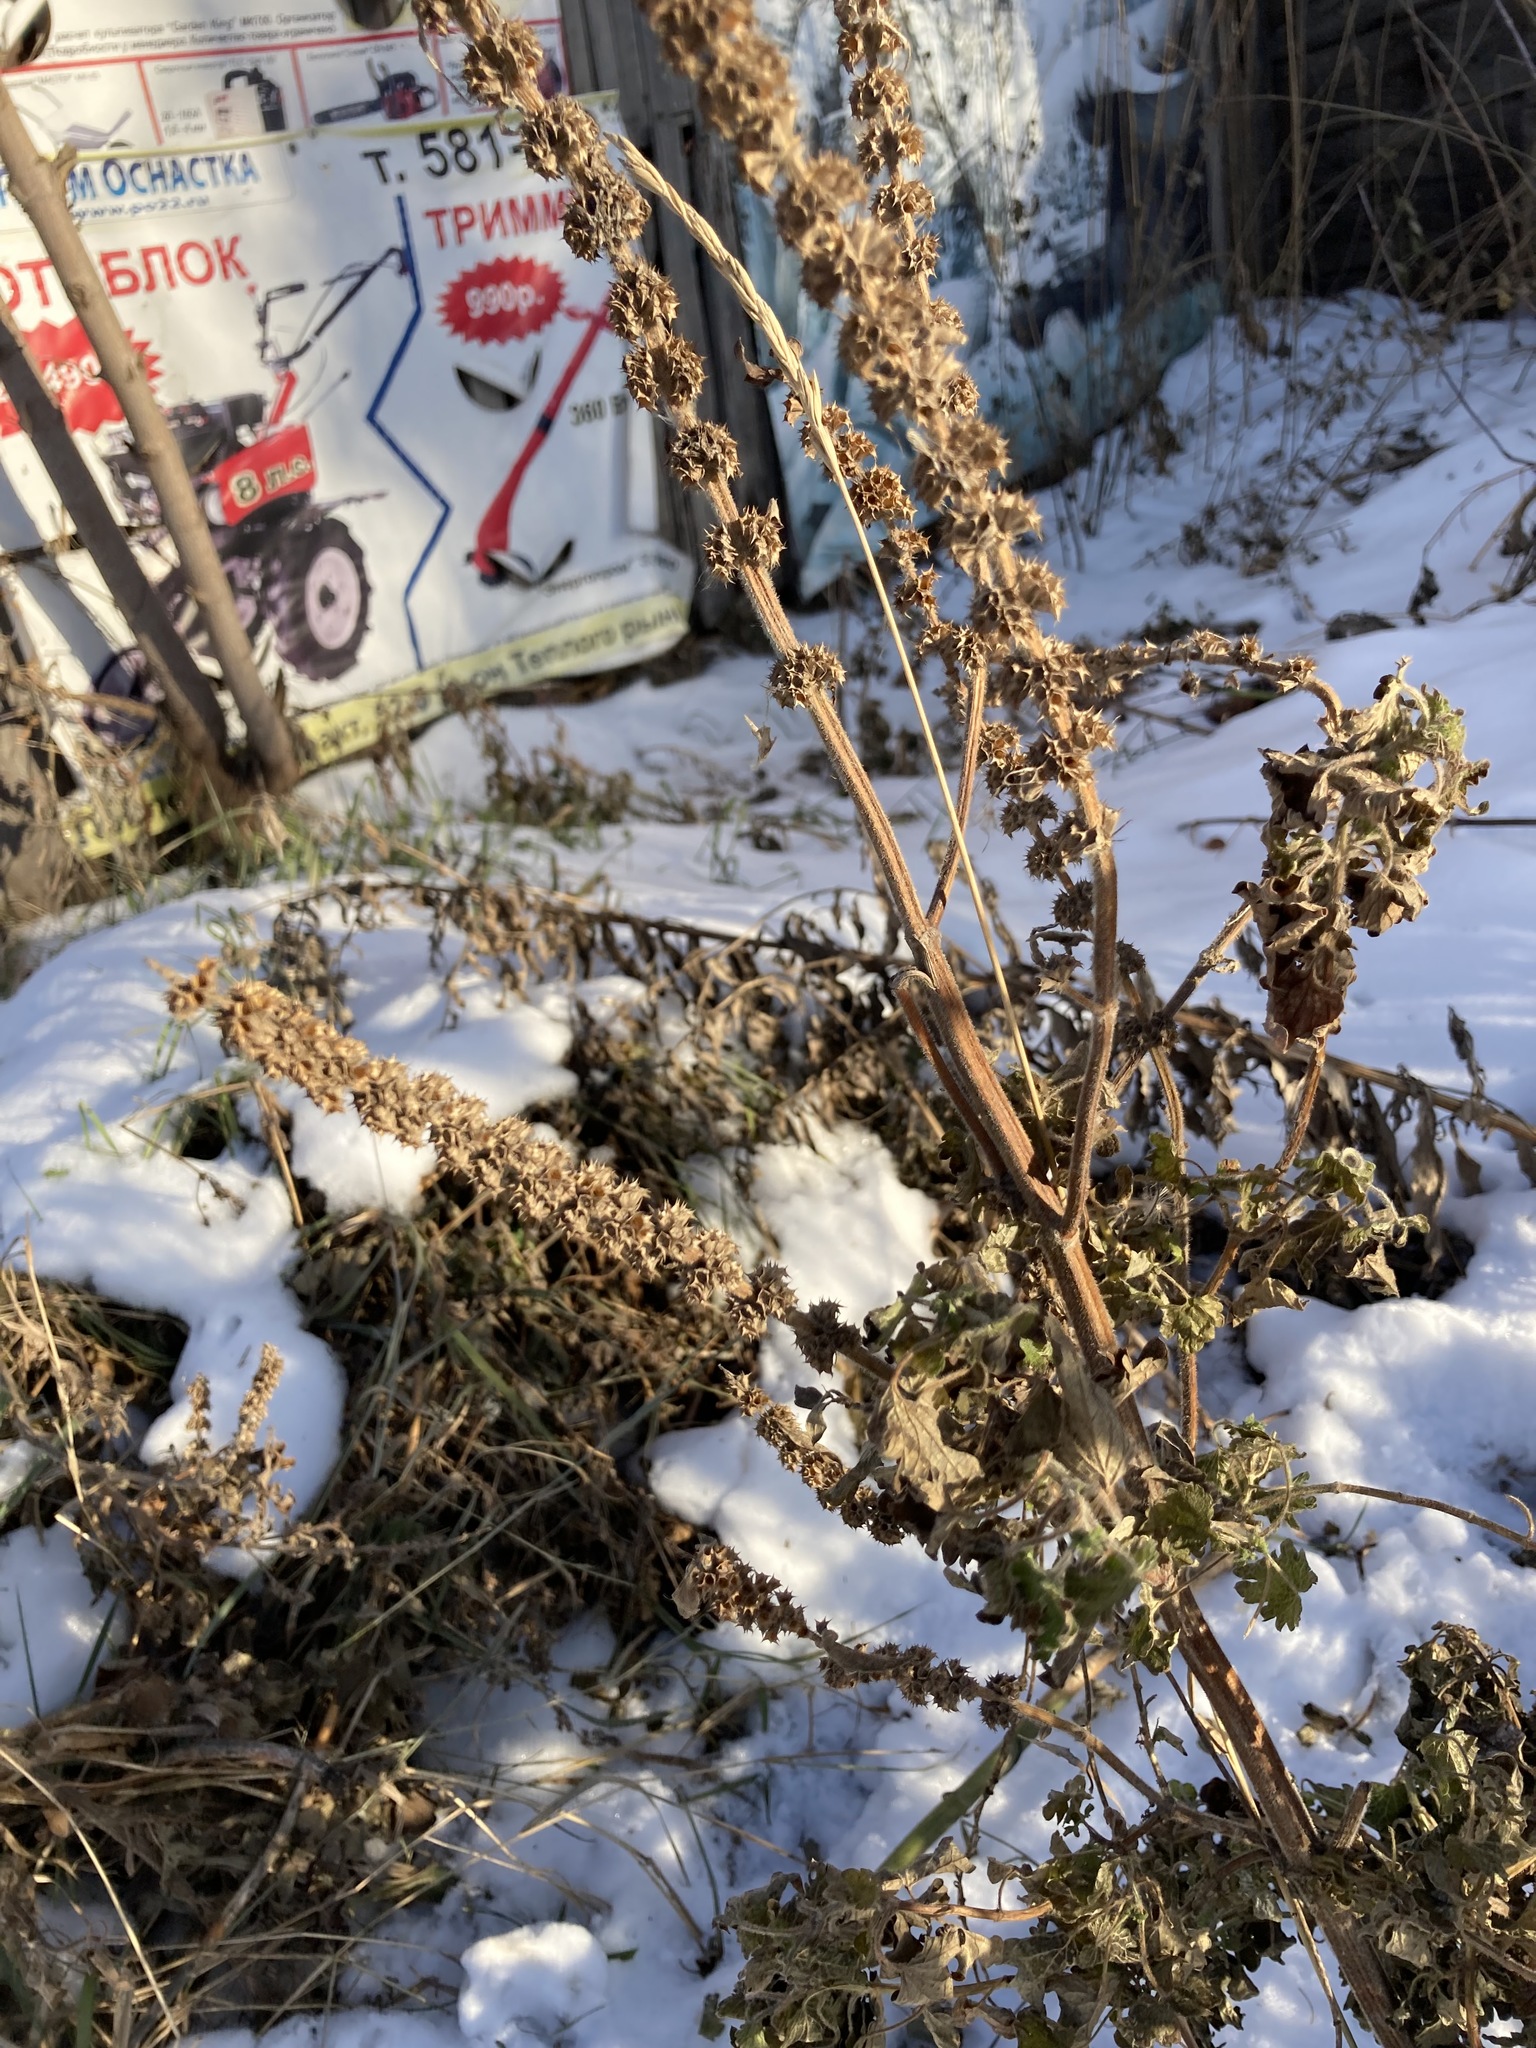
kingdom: Plantae
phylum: Tracheophyta
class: Magnoliopsida
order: Lamiales
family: Lamiaceae
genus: Leonurus
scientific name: Leonurus quinquelobatus
